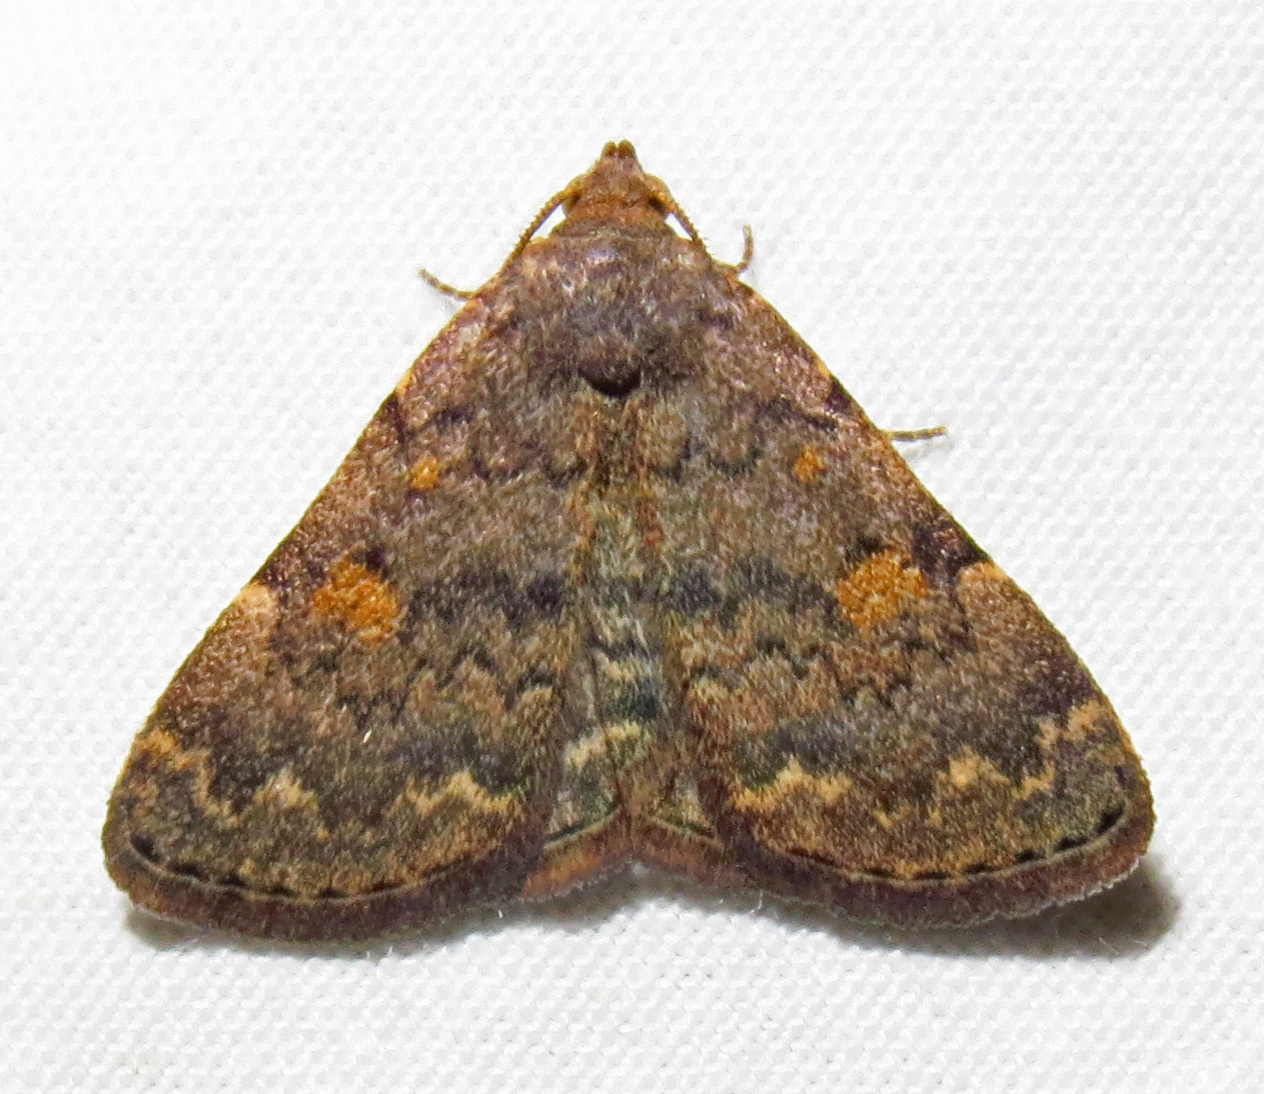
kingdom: Animalia
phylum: Arthropoda
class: Insecta
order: Lepidoptera
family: Erebidae
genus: Idia
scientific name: Idia aemula
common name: Common idia moth
